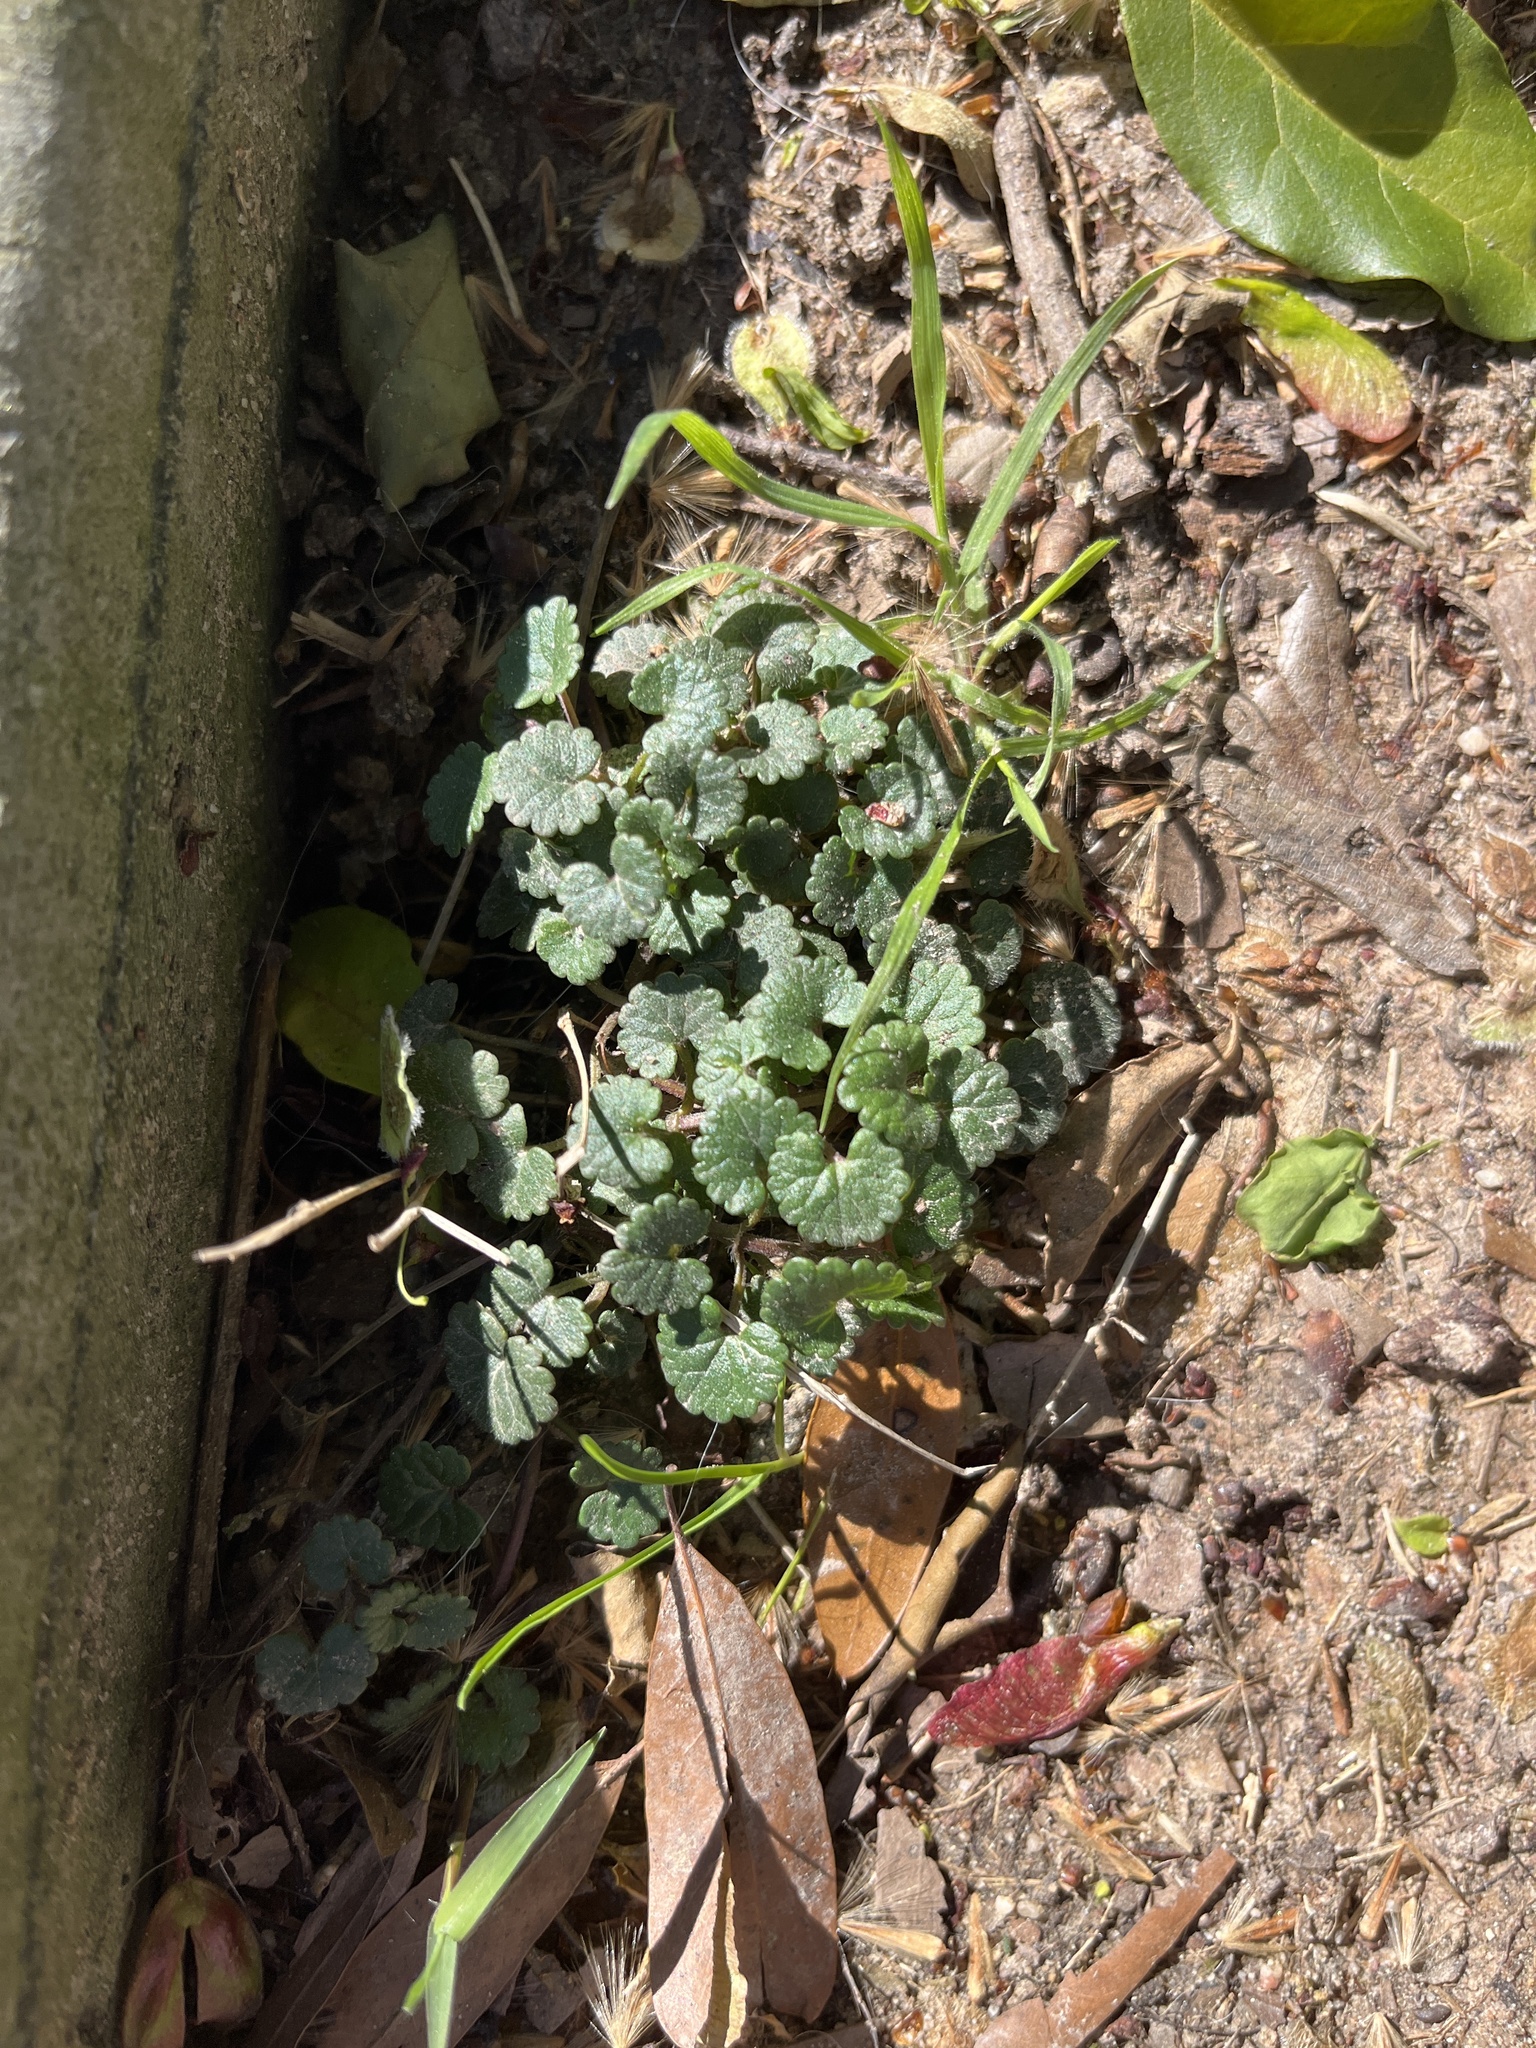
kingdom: Plantae
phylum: Tracheophyta
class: Magnoliopsida
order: Lamiales
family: Lamiaceae
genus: Glechoma
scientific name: Glechoma hederacea
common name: Ground ivy
